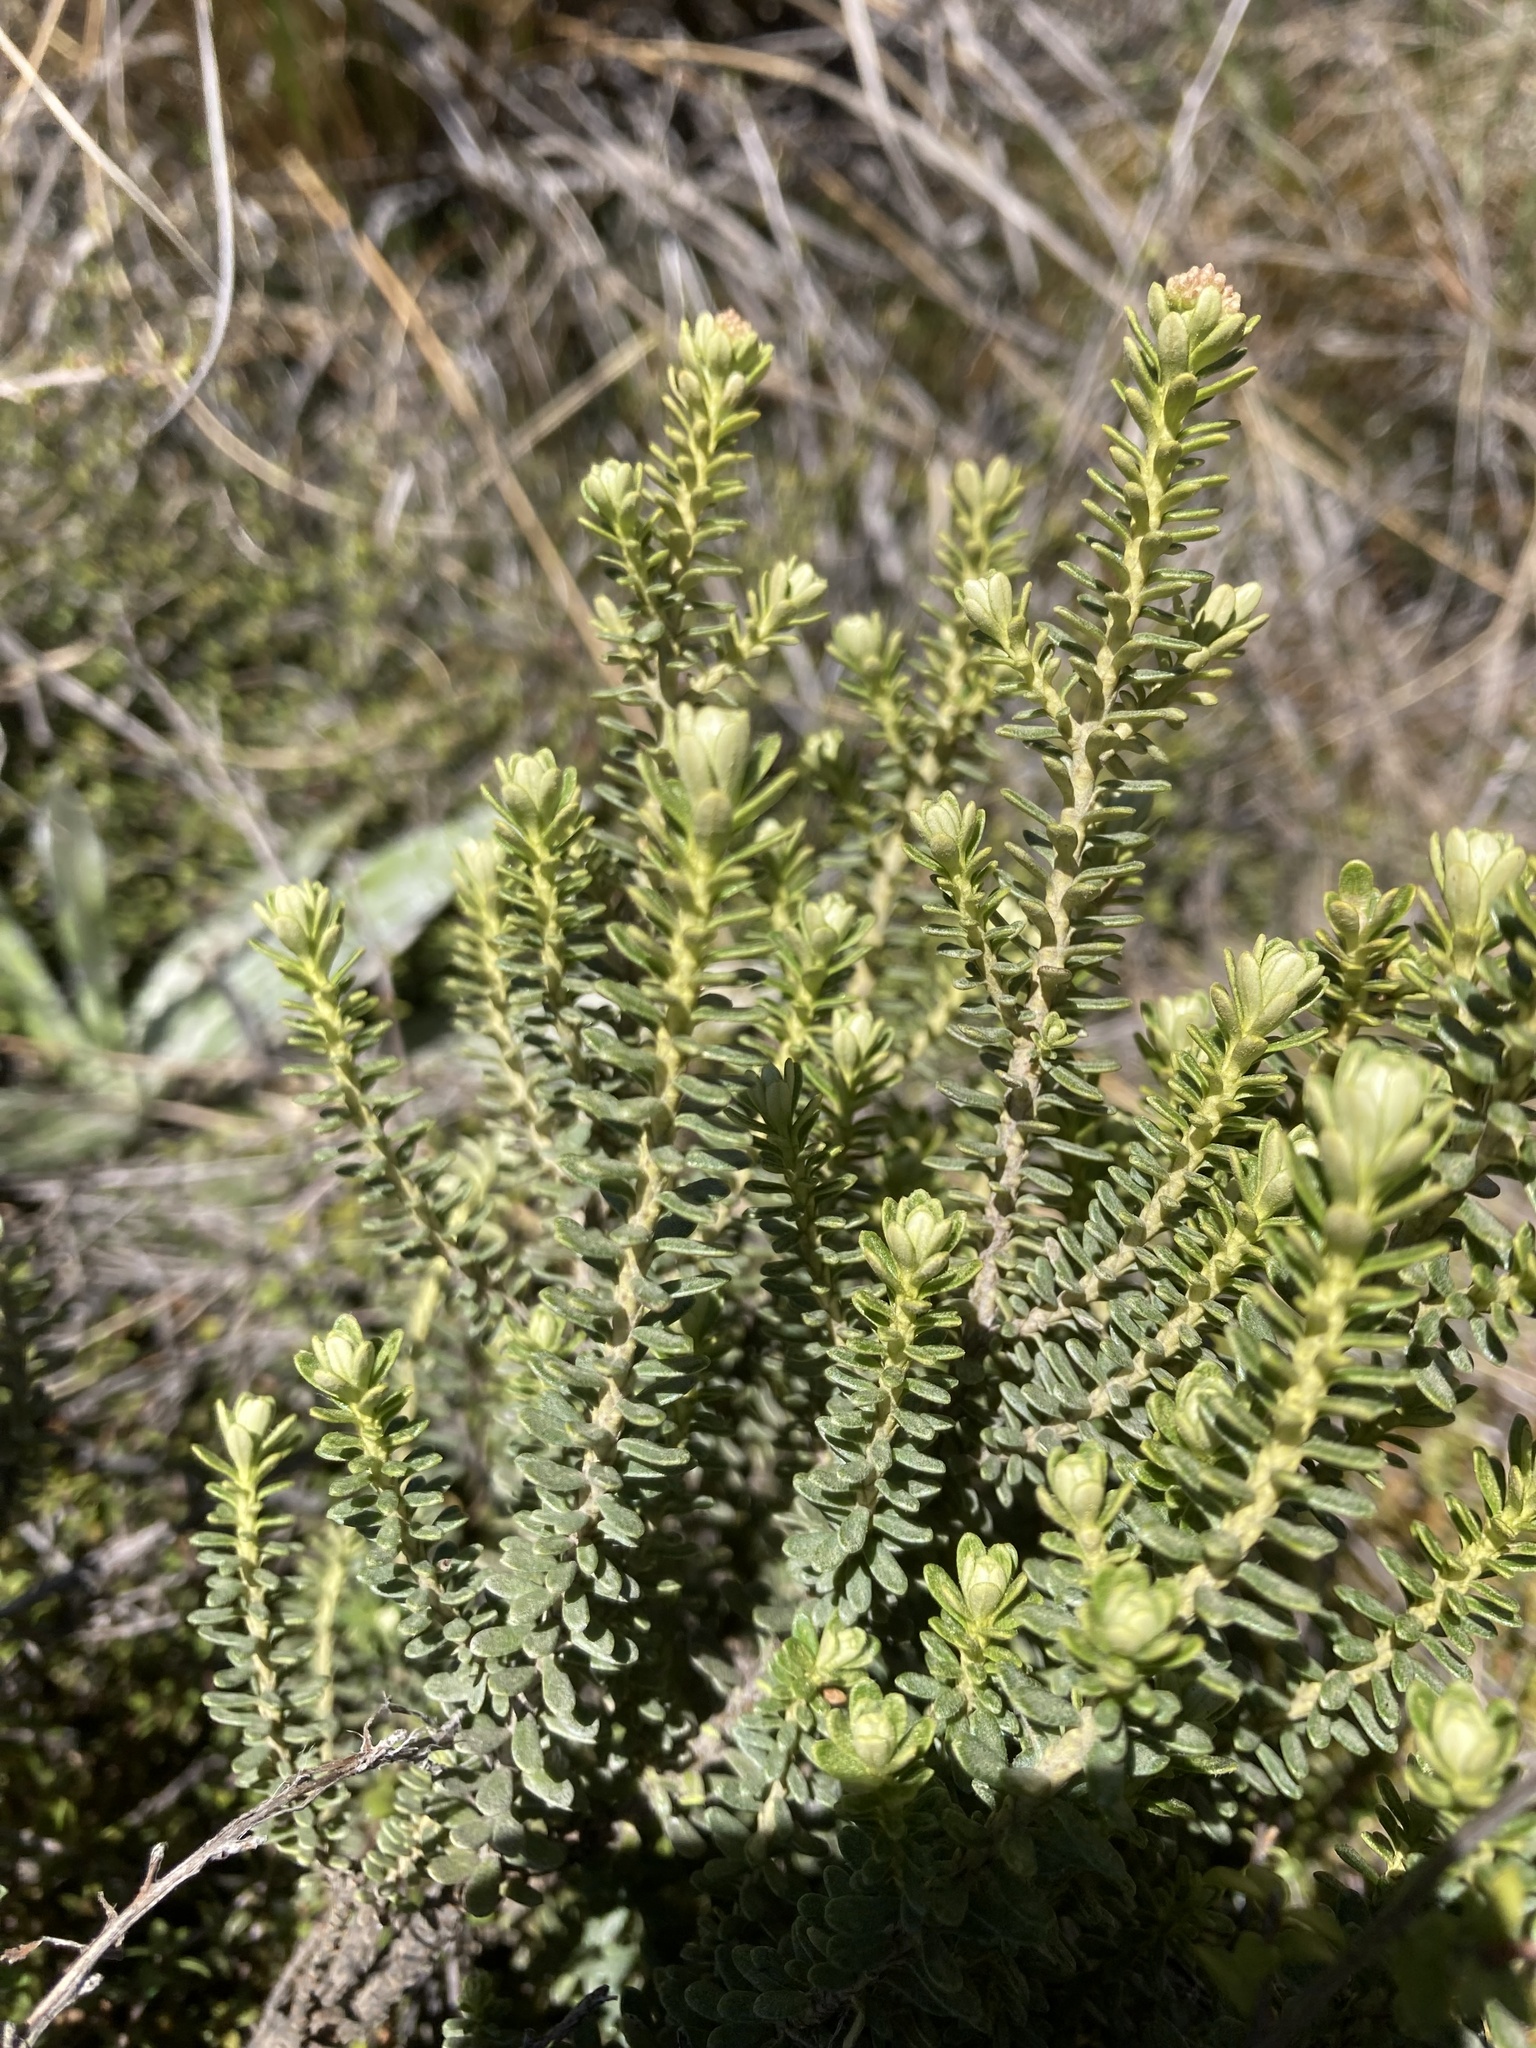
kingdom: Plantae
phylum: Tracheophyta
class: Magnoliopsida
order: Asterales
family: Asteraceae
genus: Ozothamnus
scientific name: Ozothamnus leptophyllus
